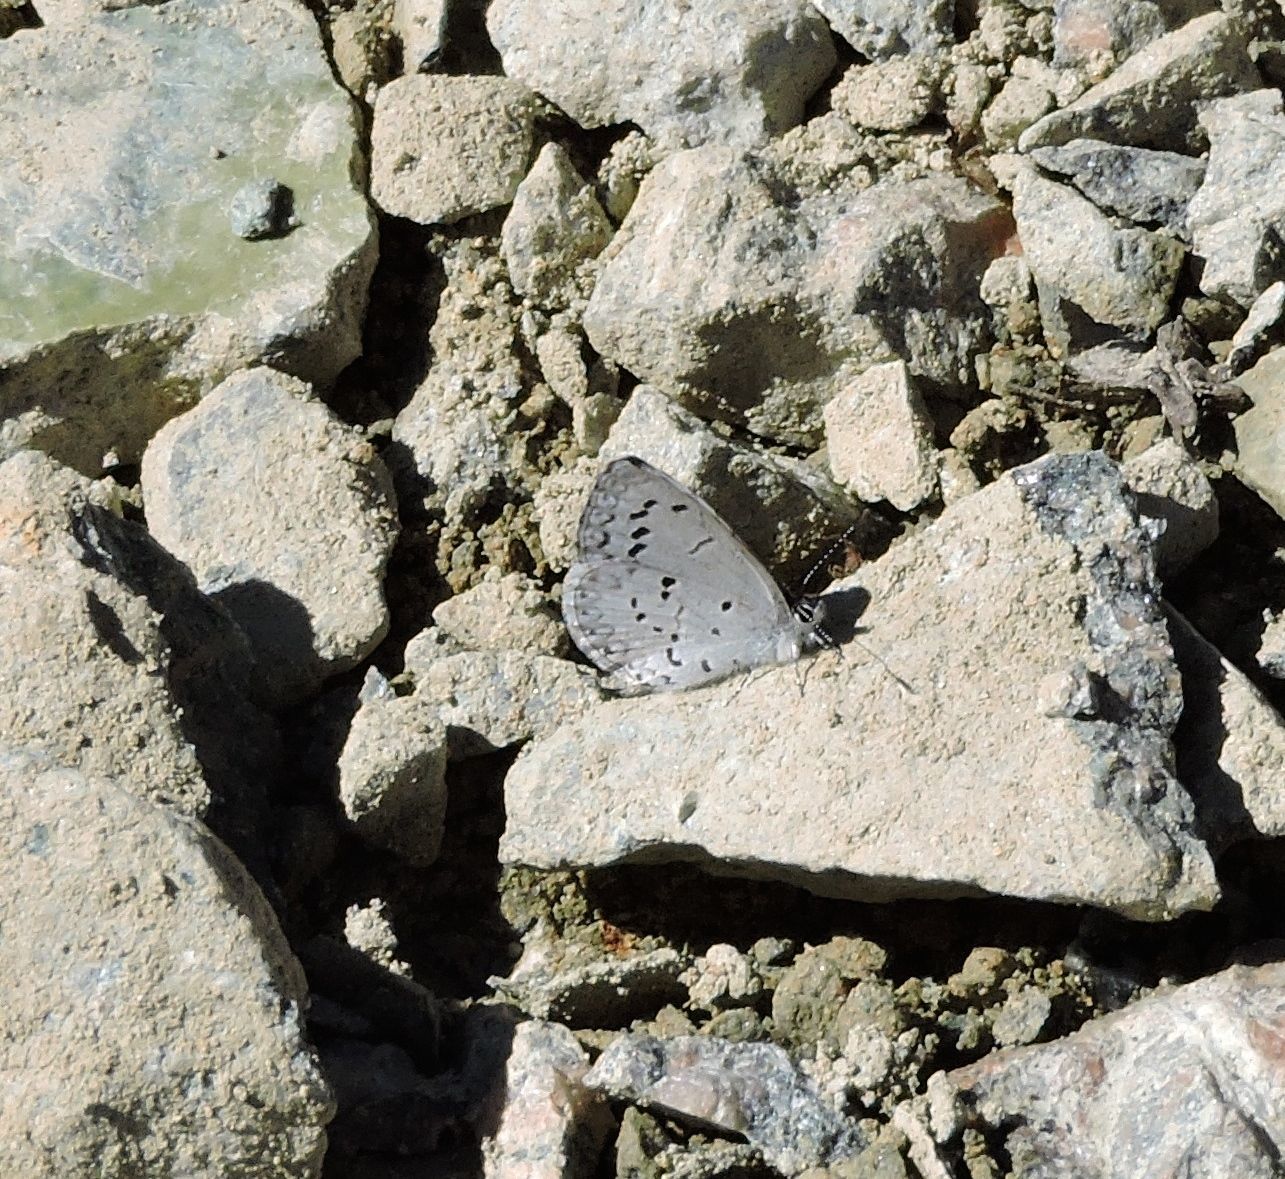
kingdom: Animalia
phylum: Arthropoda
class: Insecta
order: Lepidoptera
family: Lycaenidae
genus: Cyaniris
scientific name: Cyaniris neglecta
